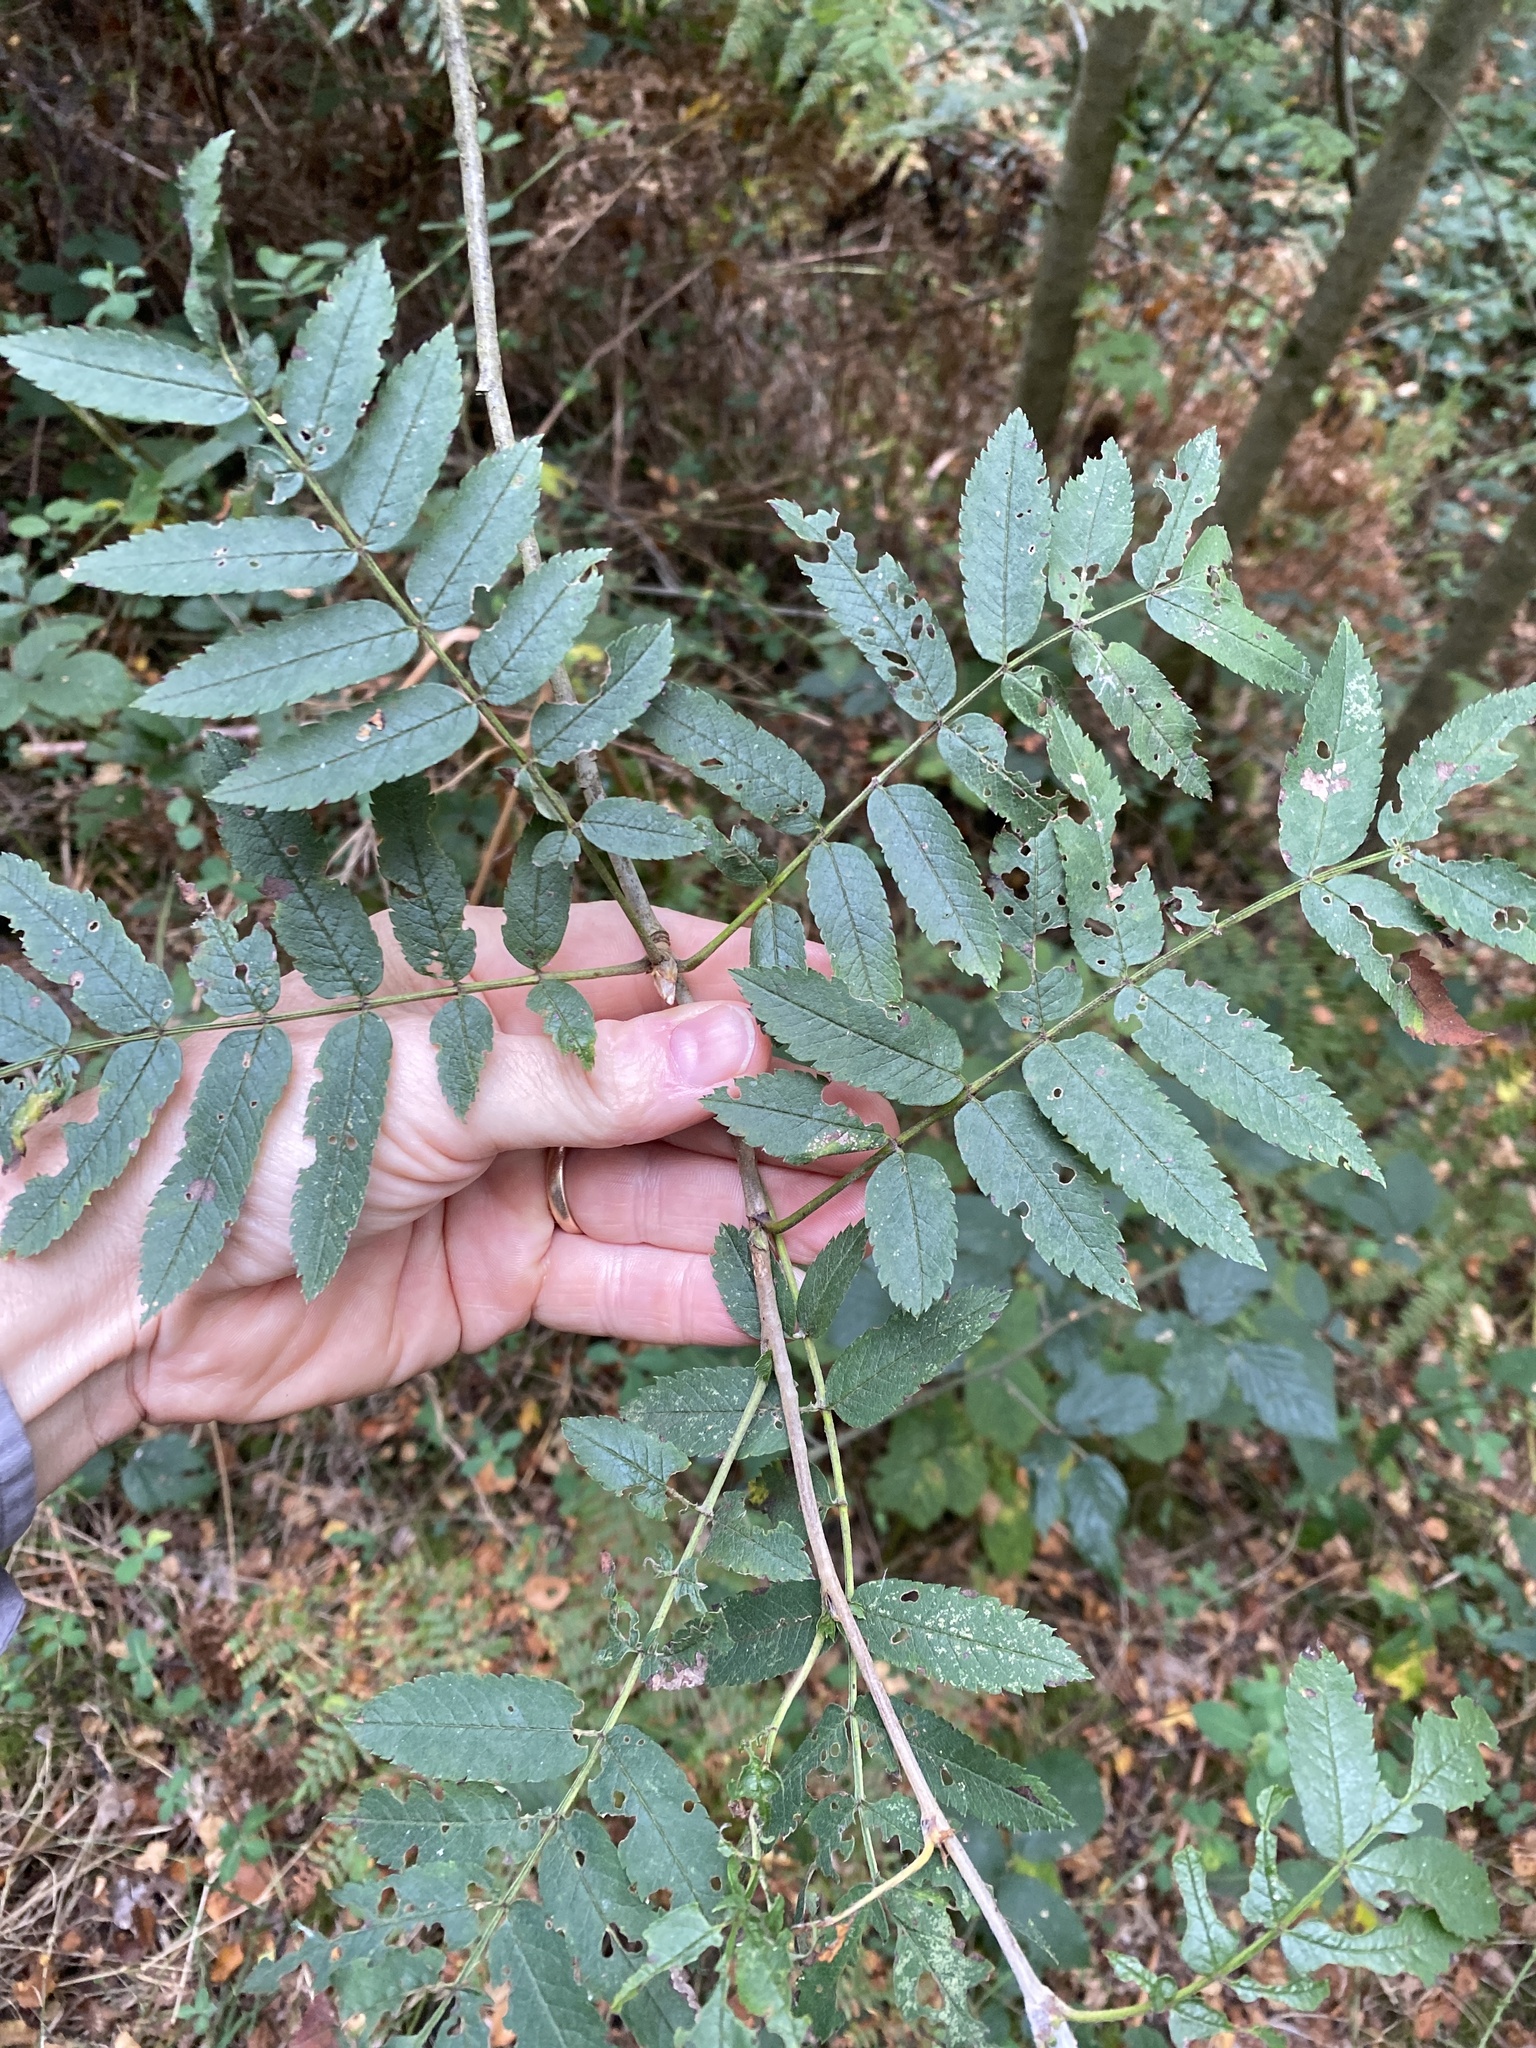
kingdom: Plantae
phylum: Tracheophyta
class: Magnoliopsida
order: Rosales
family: Rosaceae
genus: Sorbus
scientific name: Sorbus aucuparia
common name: Rowan
